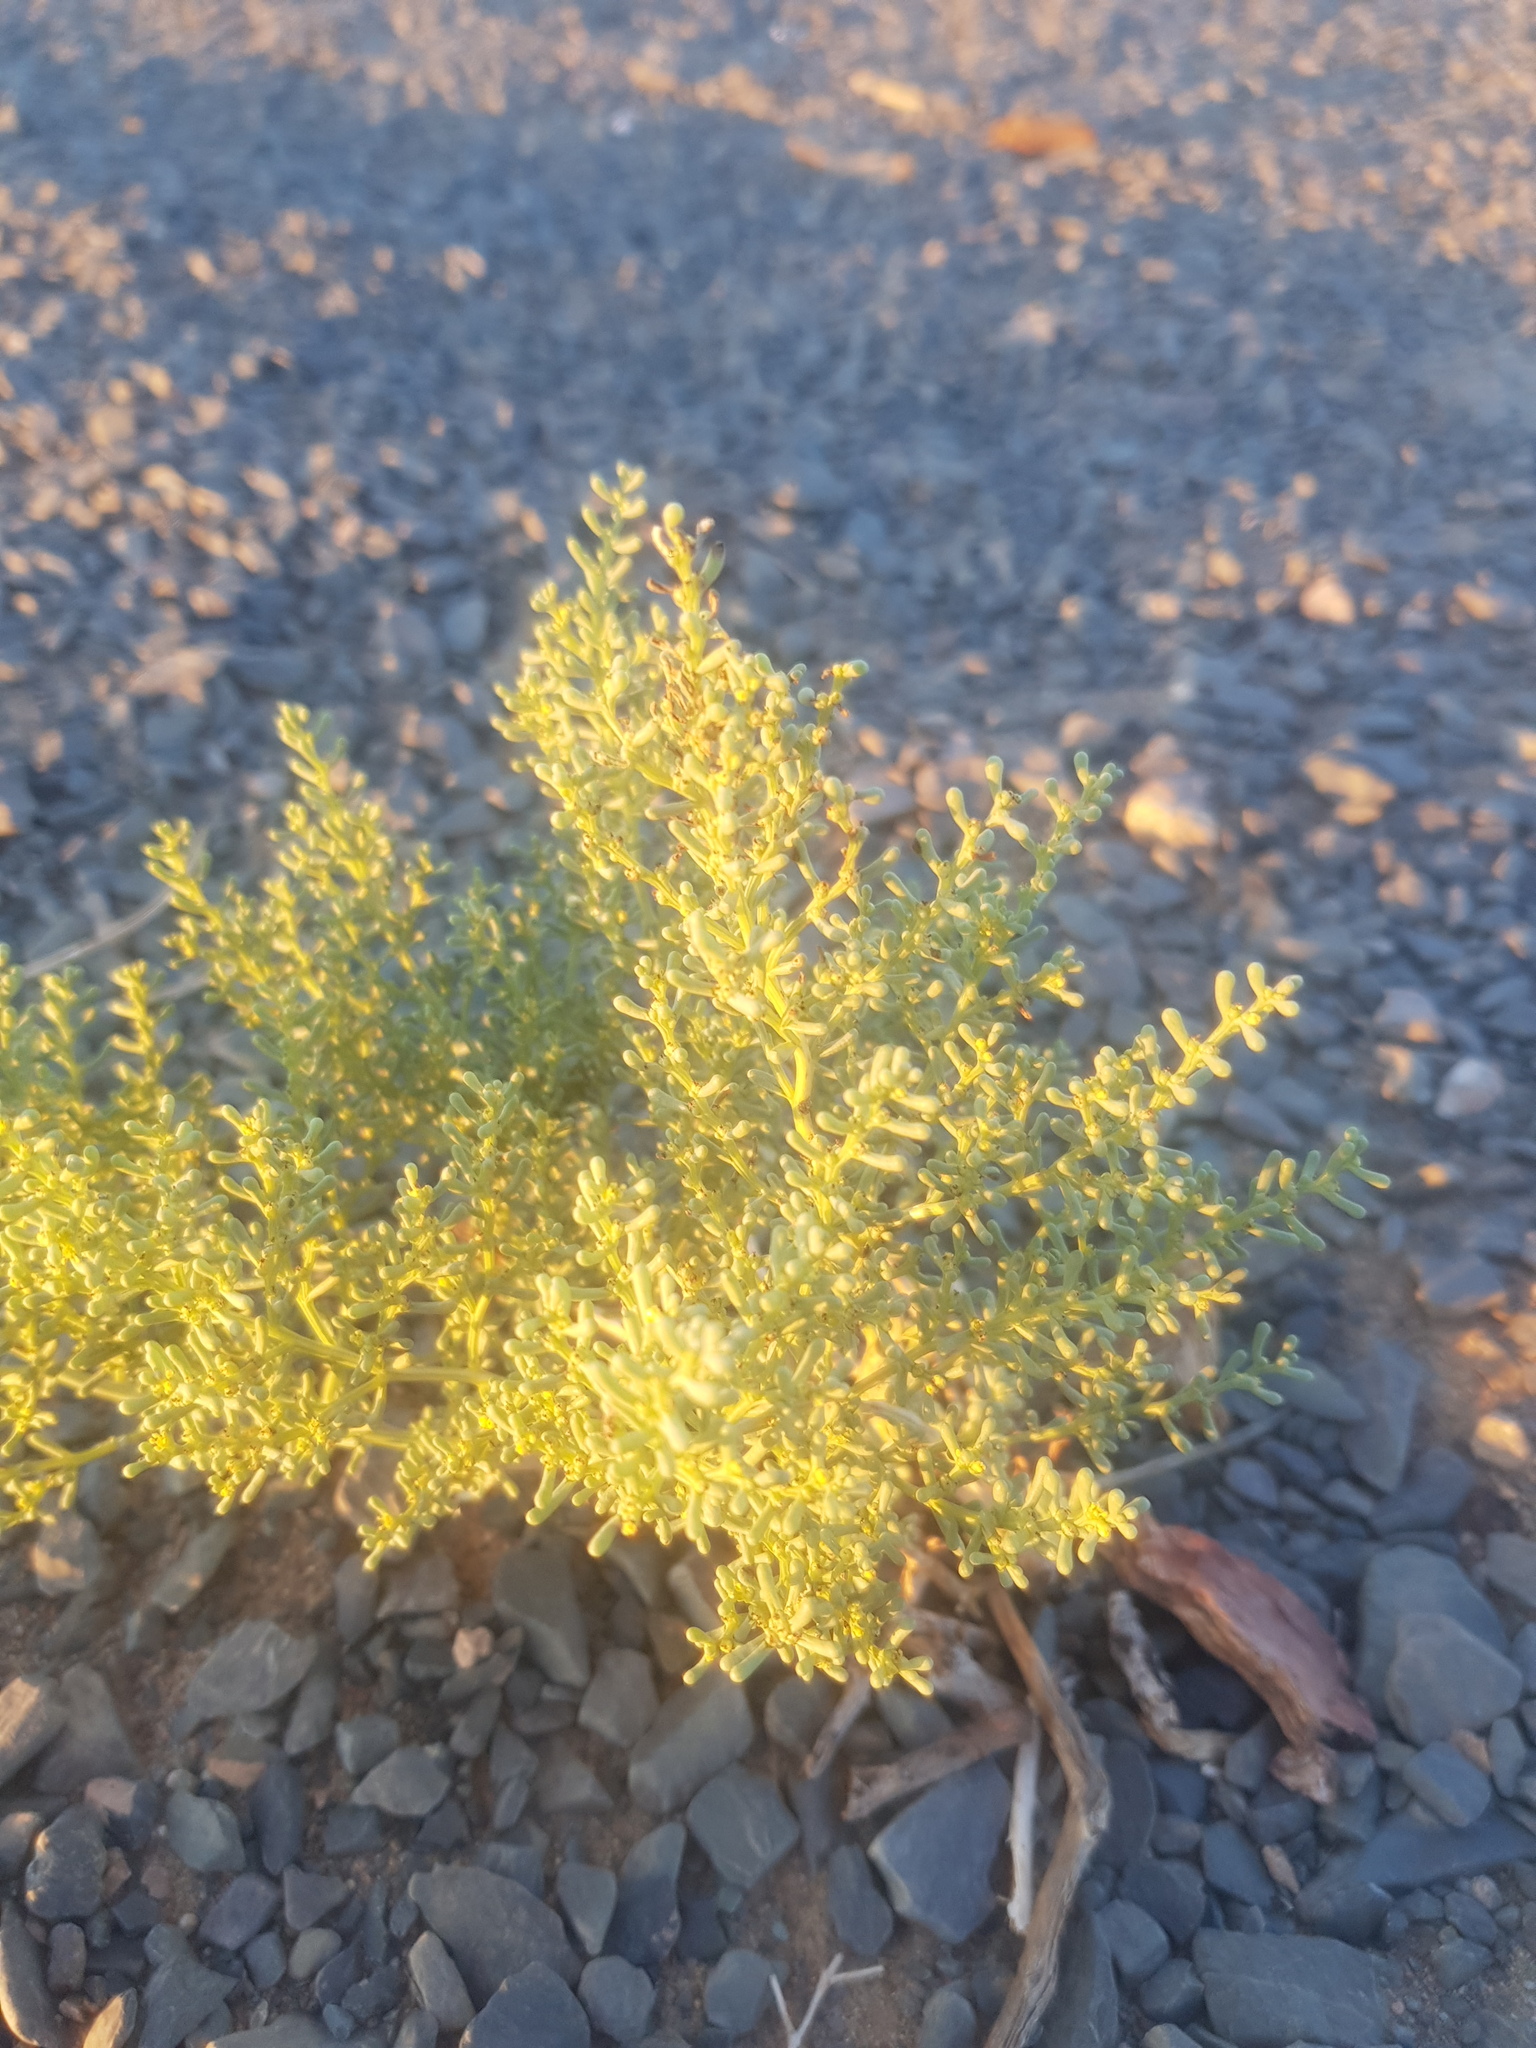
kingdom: Plantae
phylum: Tracheophyta
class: Magnoliopsida
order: Caryophyllales
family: Amaranthaceae
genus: Haloxylon
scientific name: Haloxylon regelii
